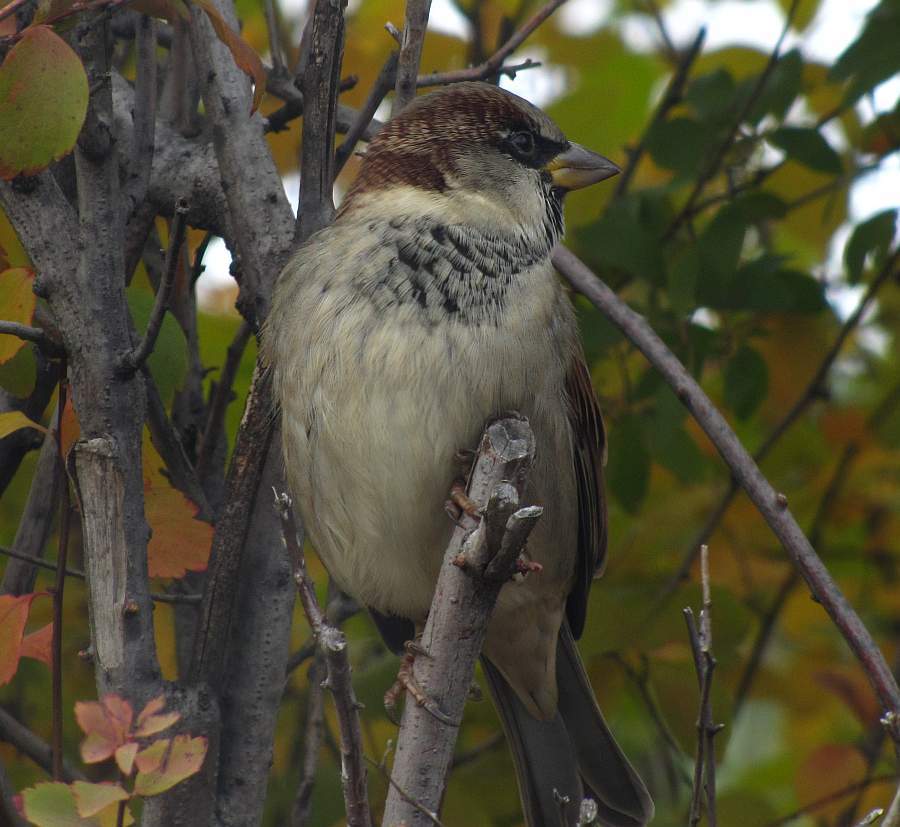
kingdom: Animalia
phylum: Chordata
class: Aves
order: Passeriformes
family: Passeridae
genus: Passer
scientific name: Passer domesticus
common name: House sparrow
